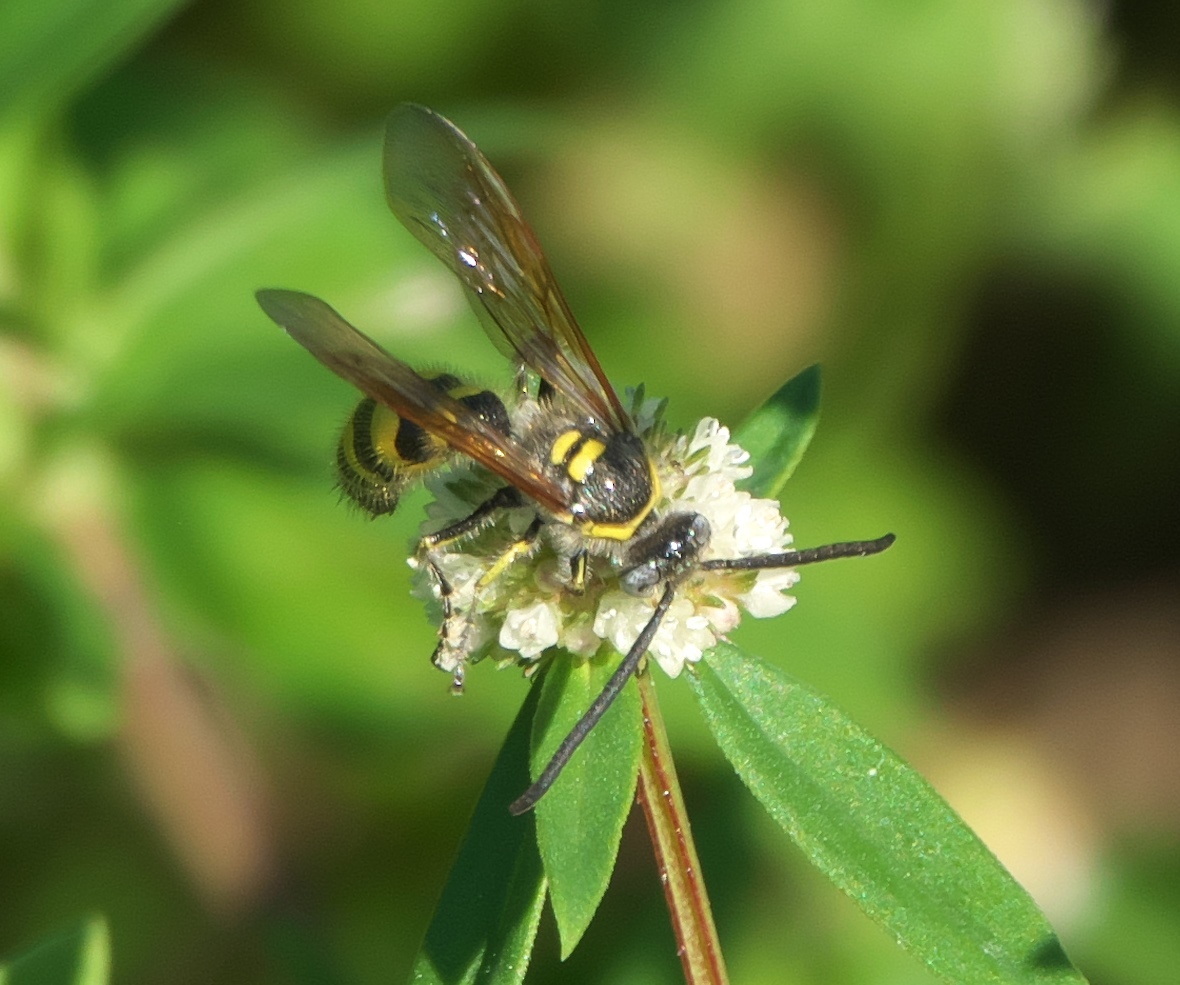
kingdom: Animalia
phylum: Arthropoda
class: Insecta
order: Hymenoptera
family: Scoliidae
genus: Dielis
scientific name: Dielis
